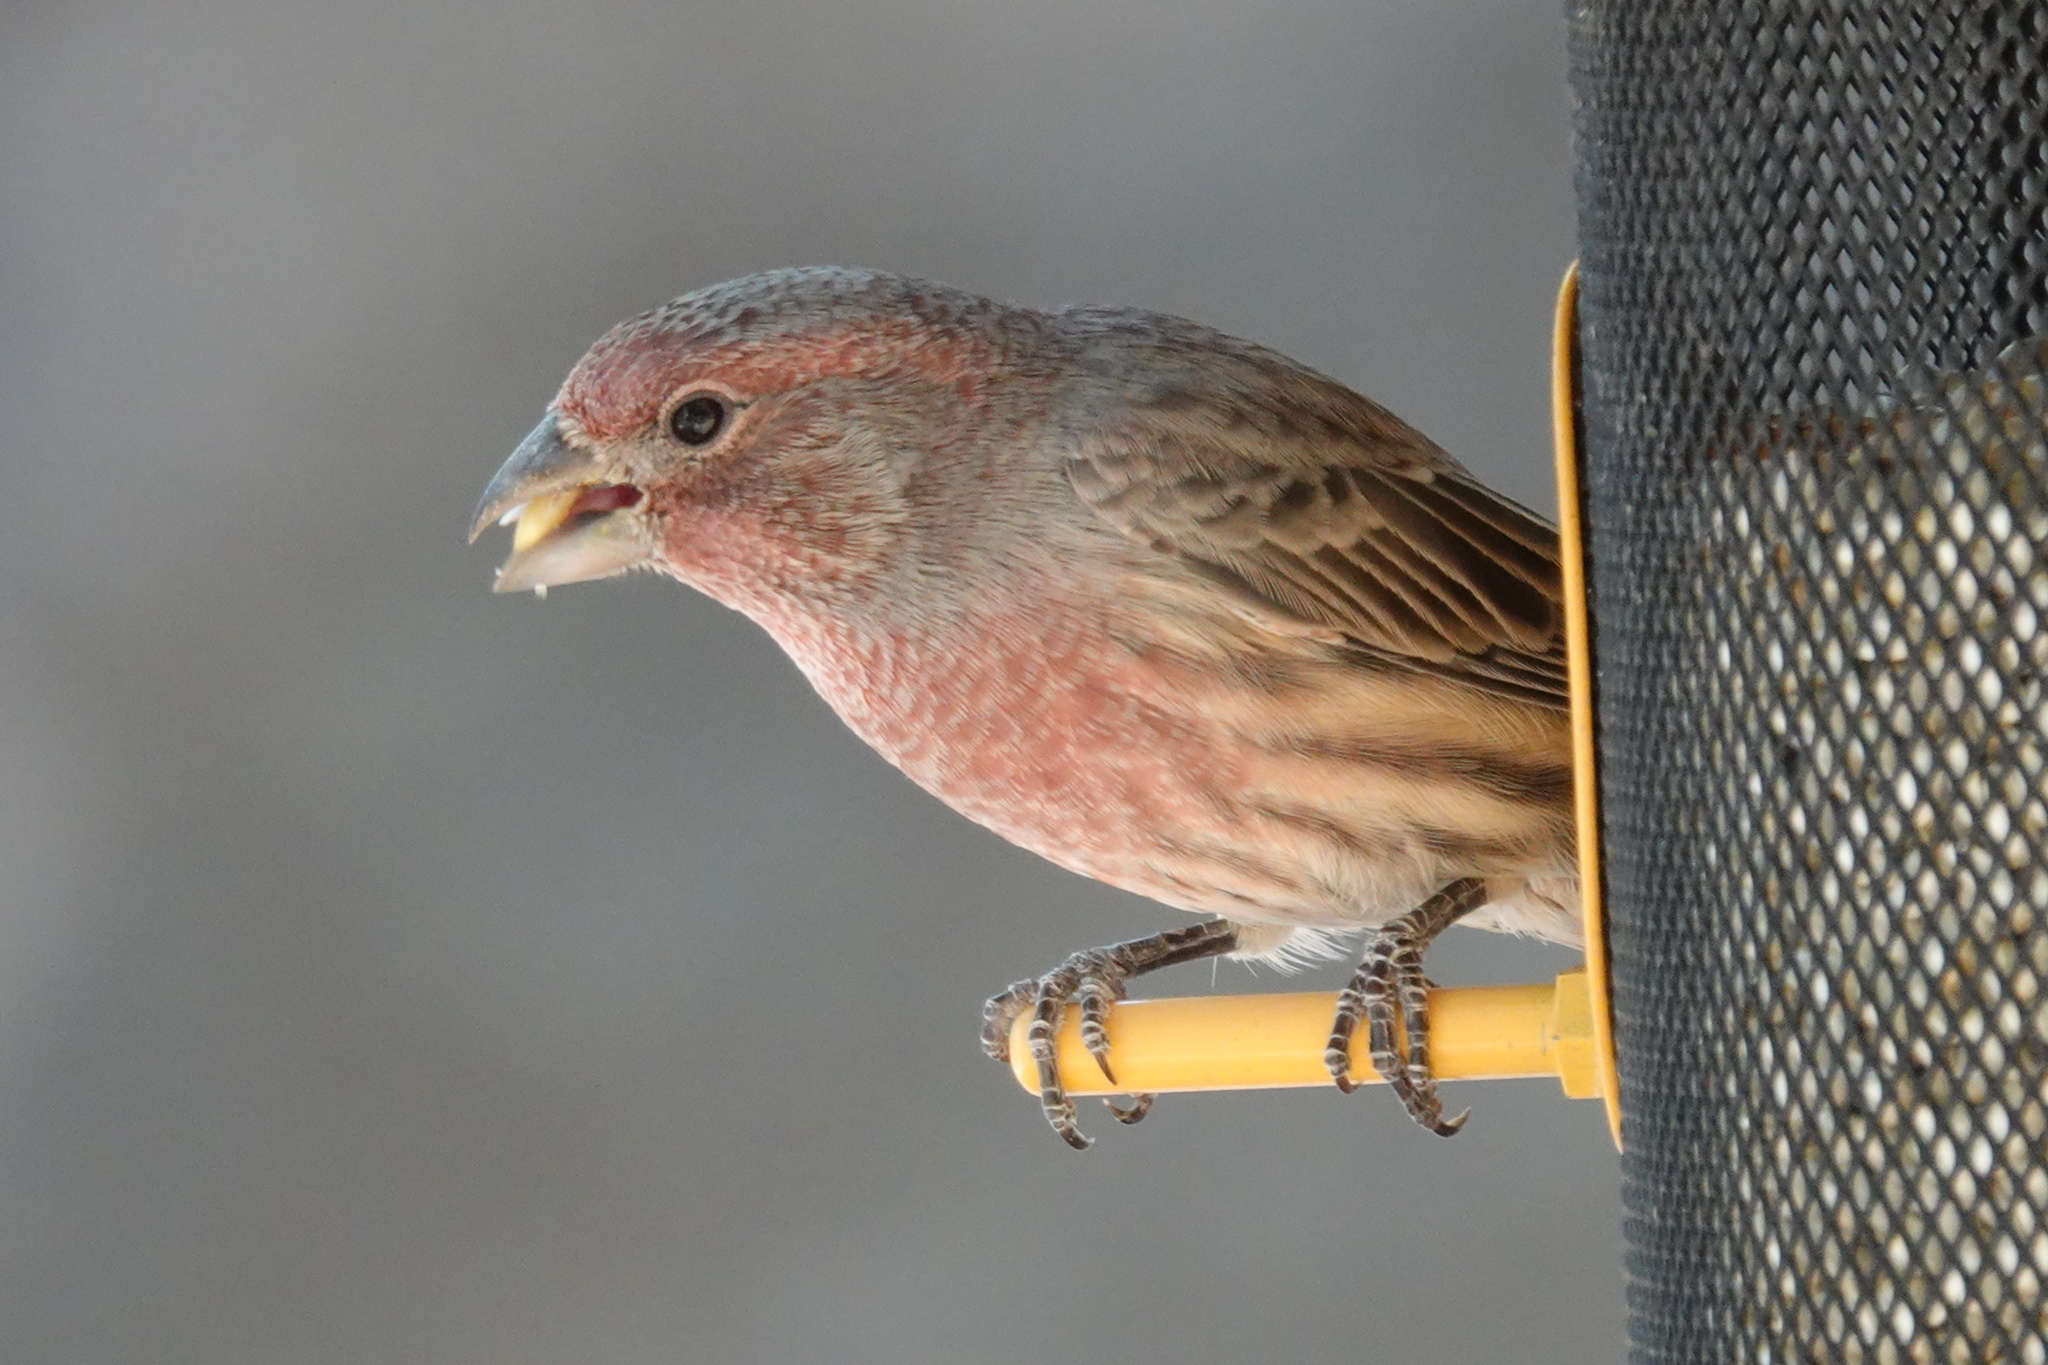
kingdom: Animalia
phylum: Chordata
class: Aves
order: Passeriformes
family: Fringillidae
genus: Haemorhous
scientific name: Haemorhous mexicanus
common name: House finch
